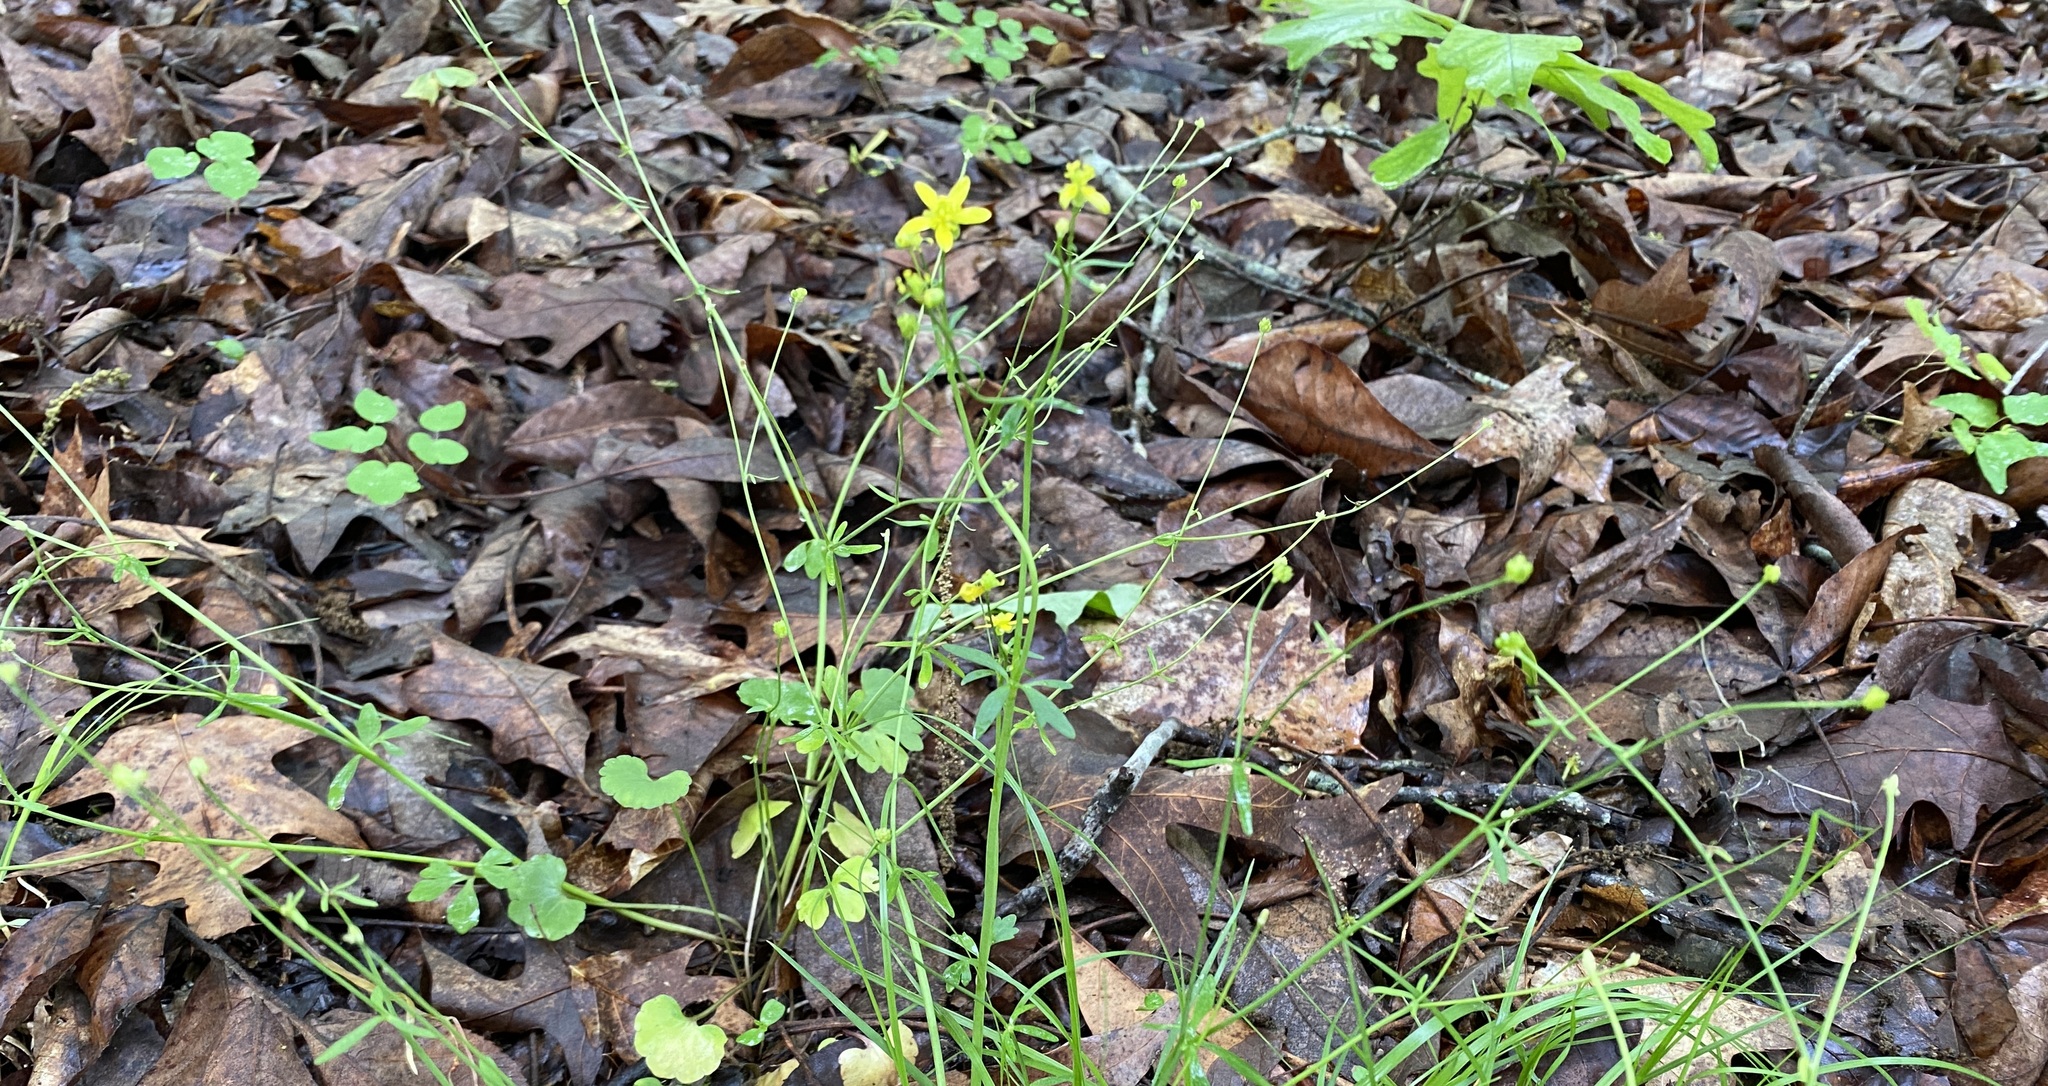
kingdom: Plantae
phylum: Tracheophyta
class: Magnoliopsida
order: Ranunculales
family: Ranunculaceae
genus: Ranunculus
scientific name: Ranunculus harveyi
